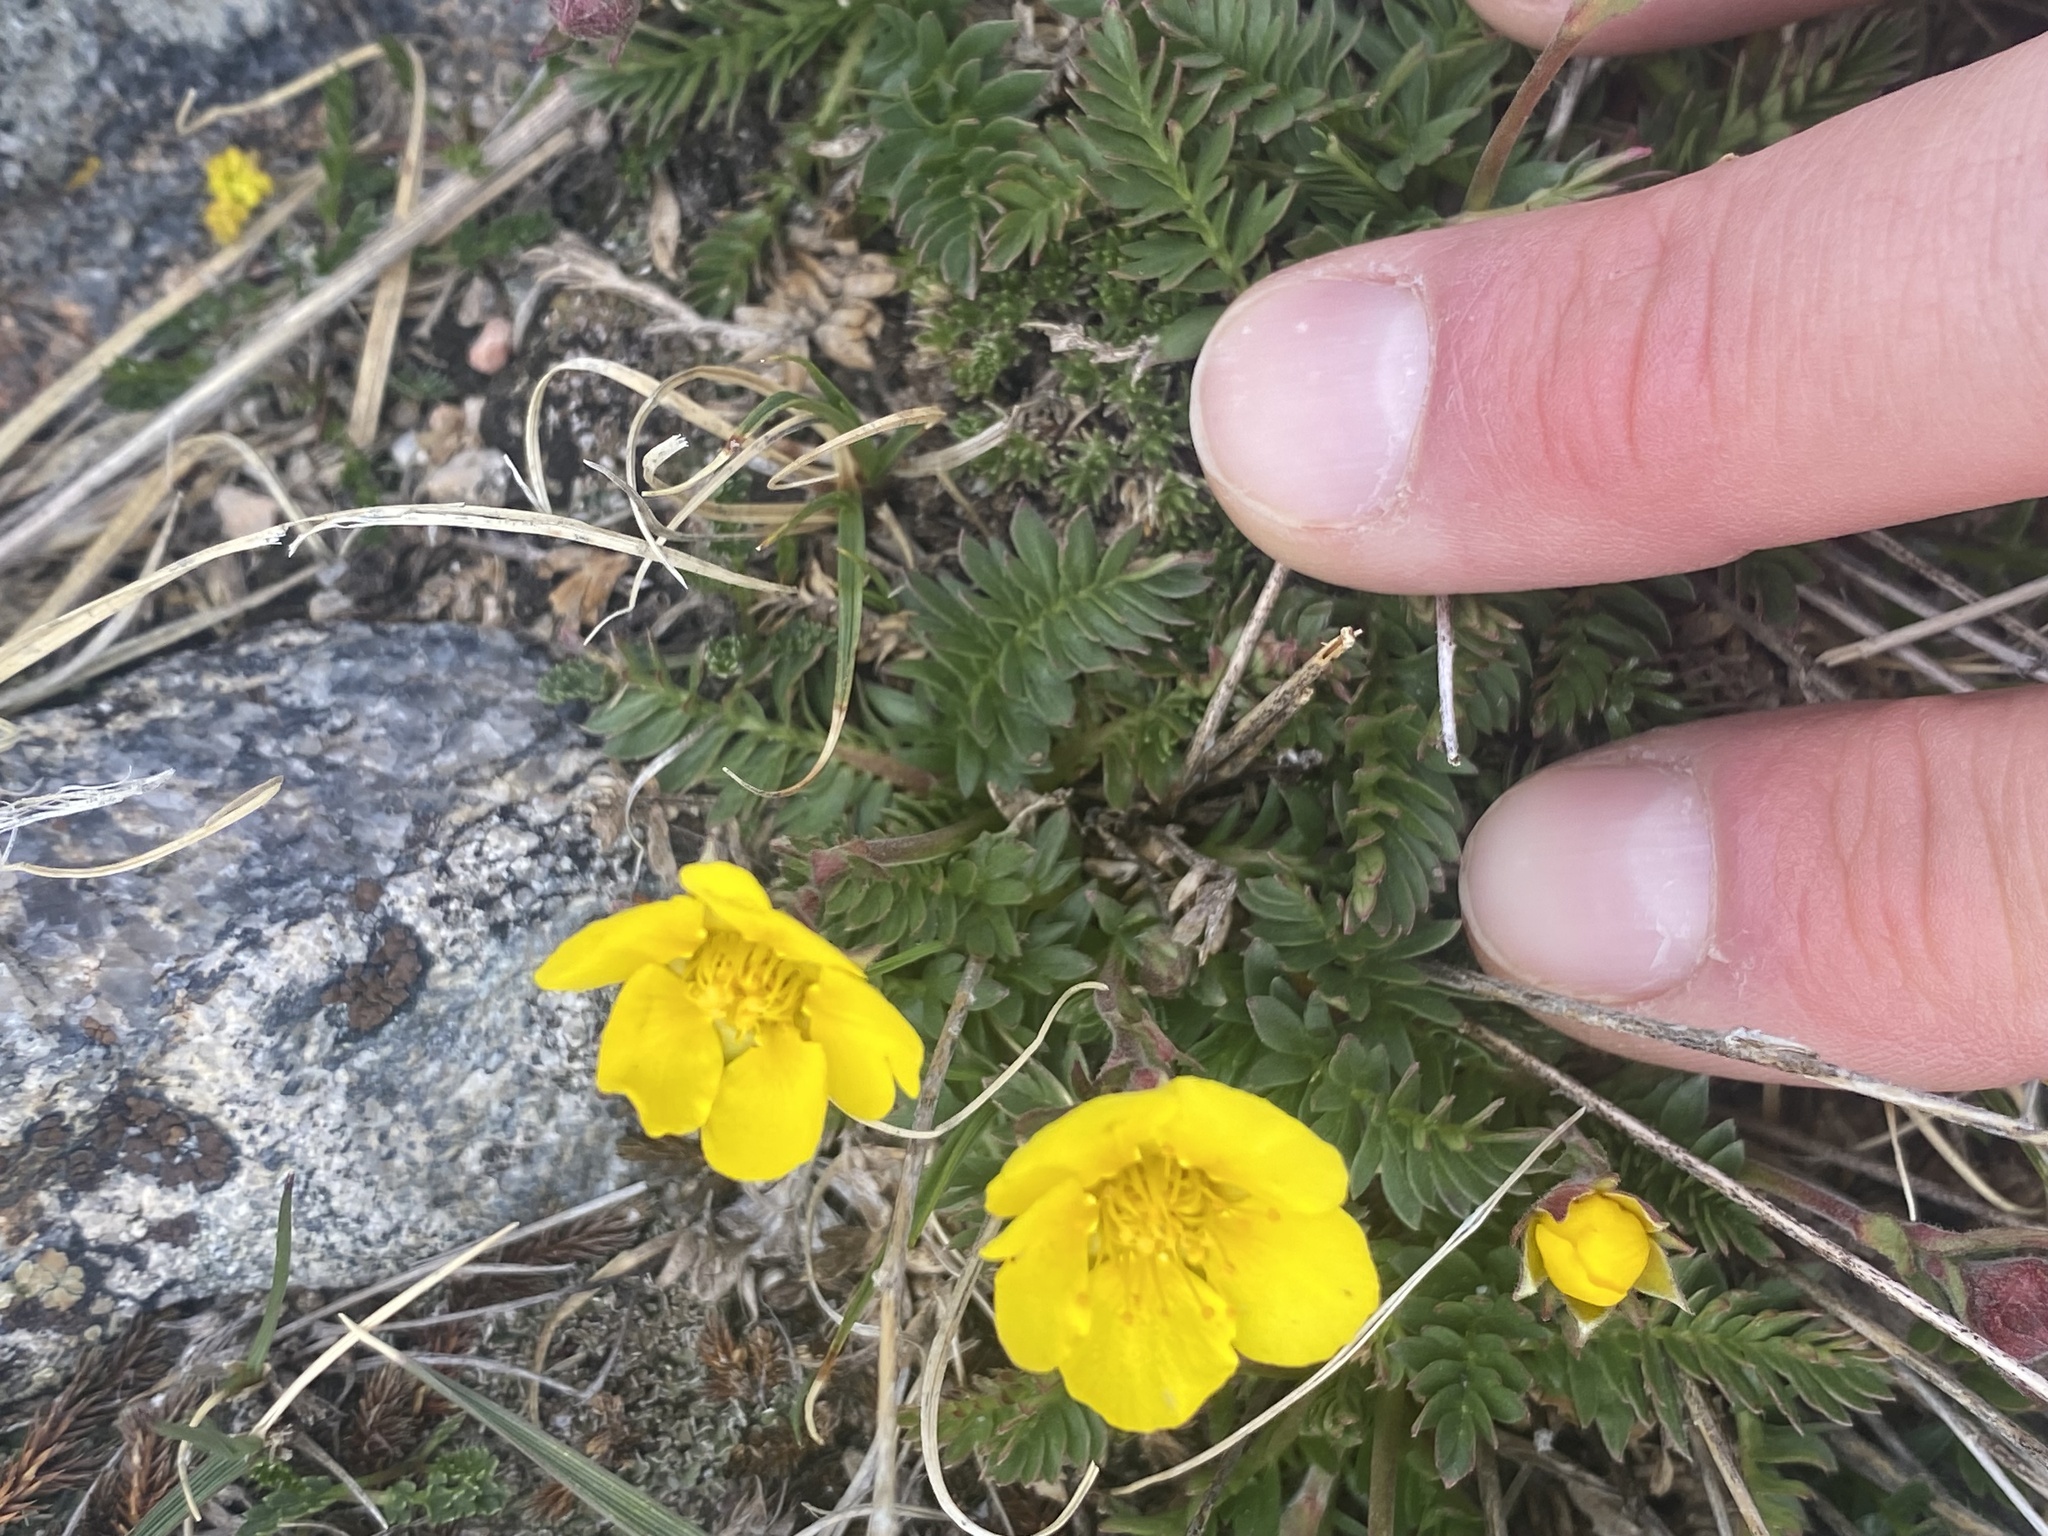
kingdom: Plantae
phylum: Tracheophyta
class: Magnoliopsida
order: Rosales
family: Rosaceae
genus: Geum
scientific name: Geum rossii
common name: Alpine avens
